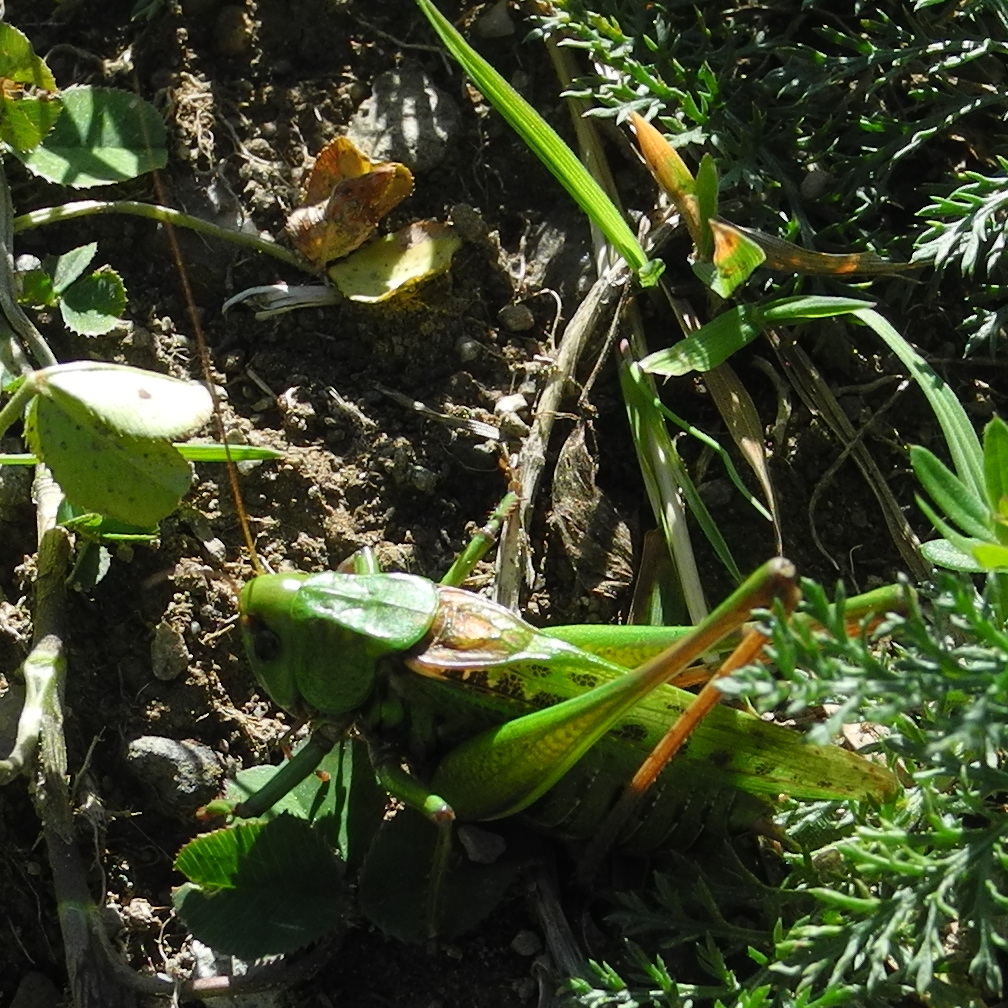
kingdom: Animalia
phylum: Arthropoda
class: Insecta
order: Orthoptera
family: Tettigoniidae
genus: Decticus
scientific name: Decticus verrucivorus
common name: Wart-biter
